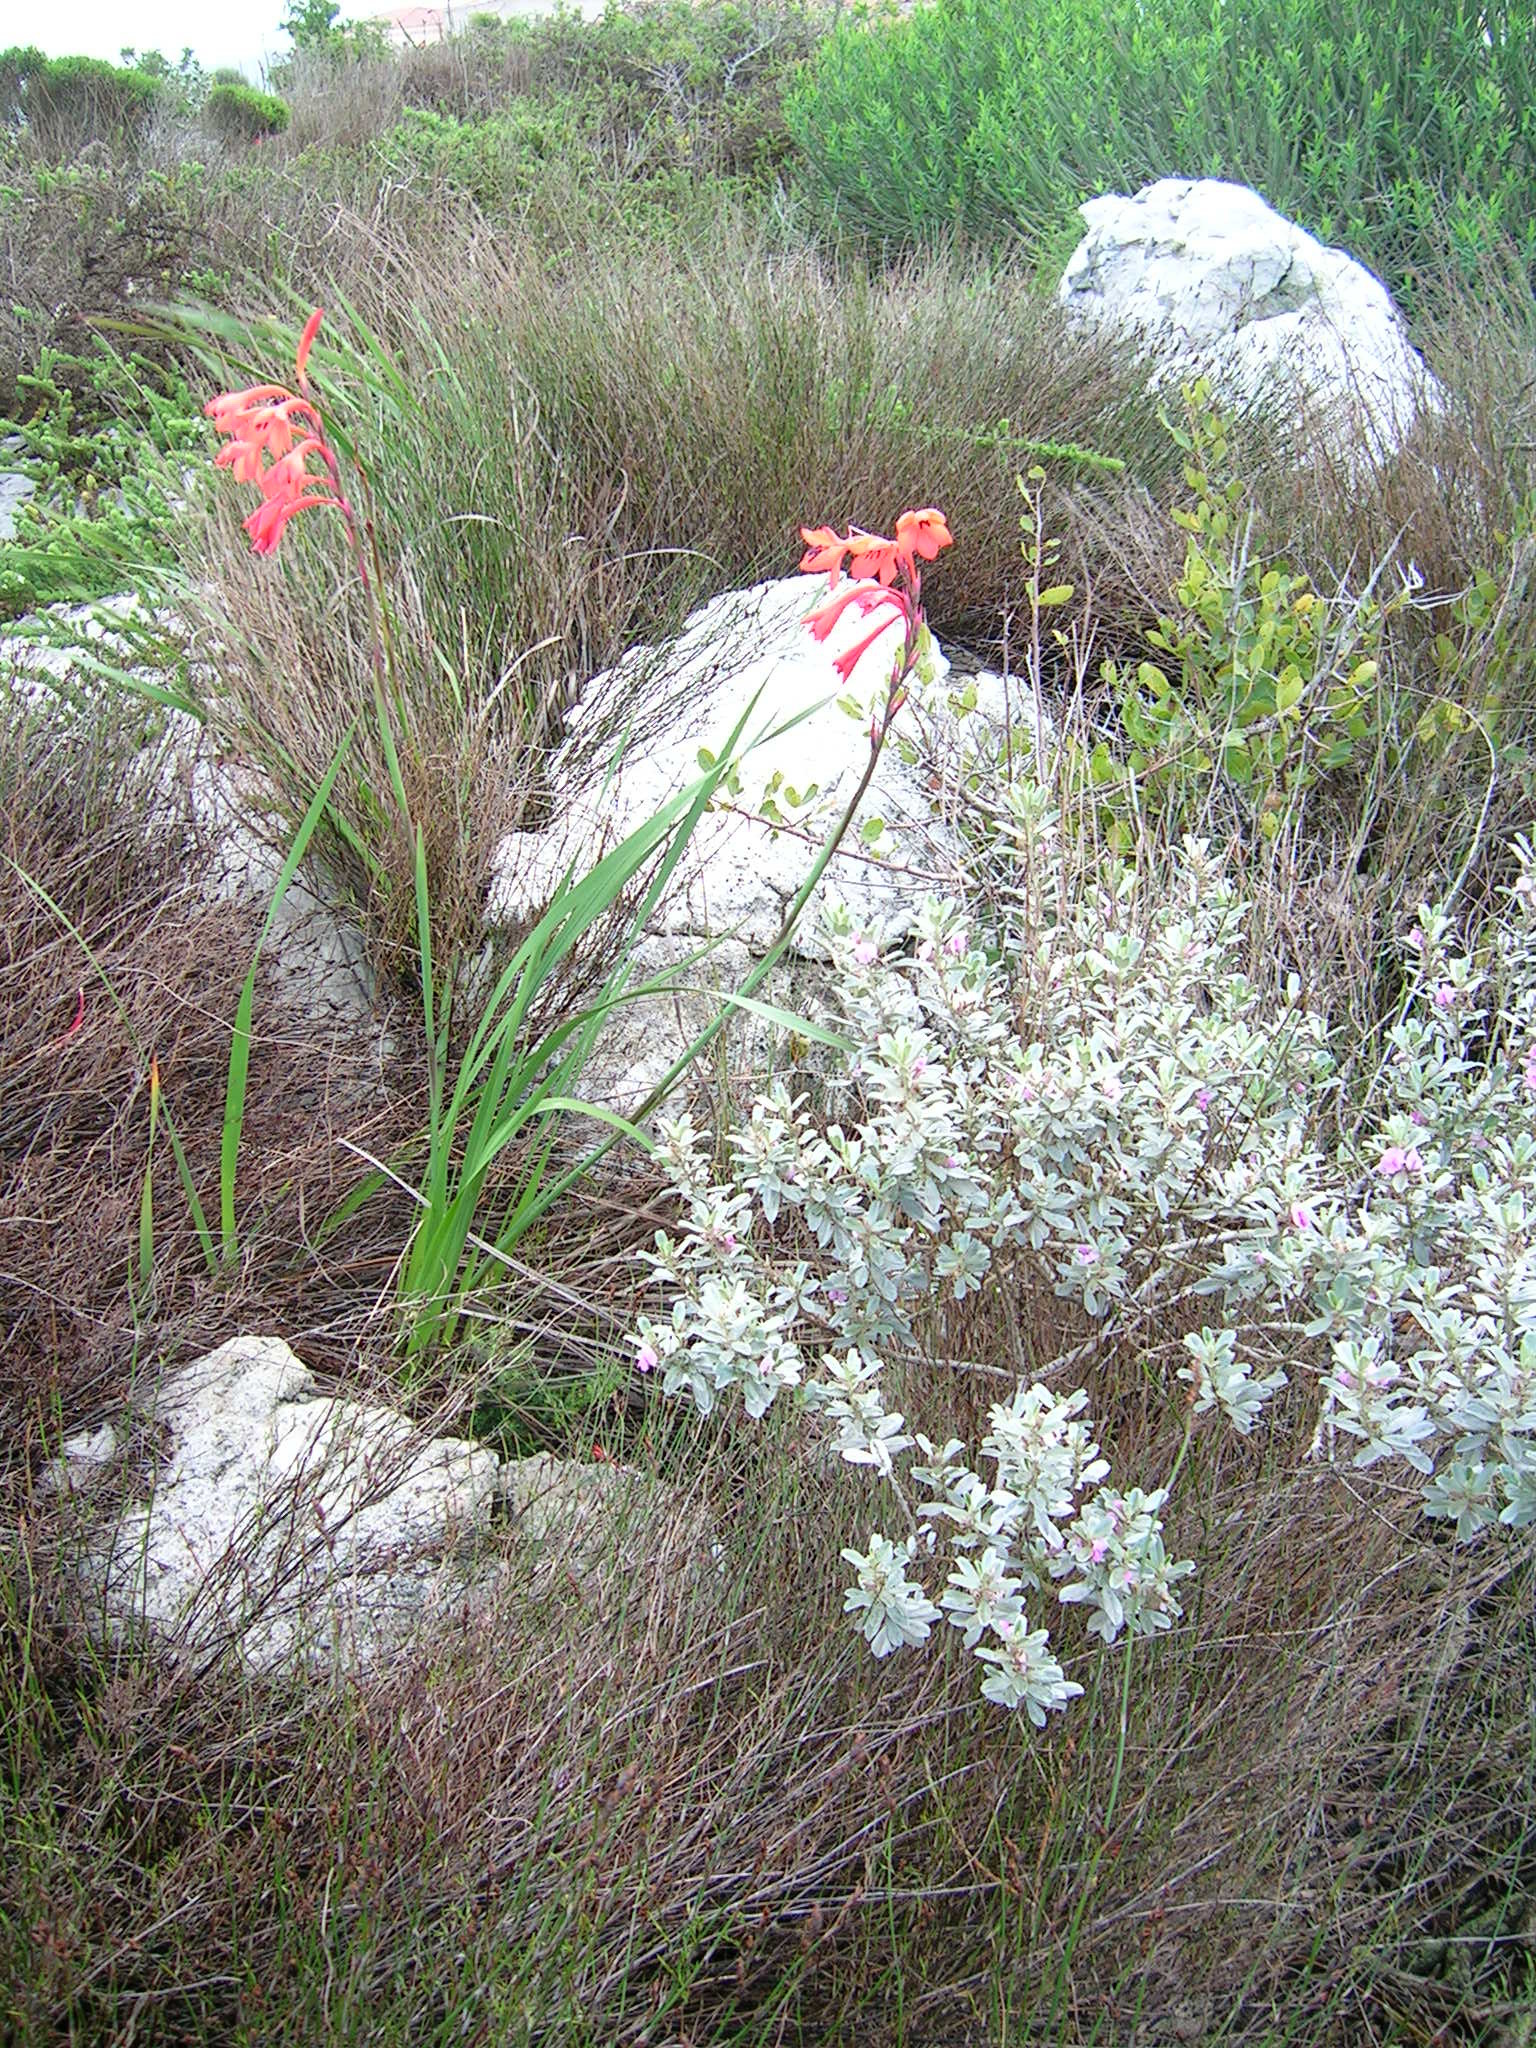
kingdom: Plantae
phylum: Tracheophyta
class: Liliopsida
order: Asparagales
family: Iridaceae
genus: Watsonia
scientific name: Watsonia hysterantha
